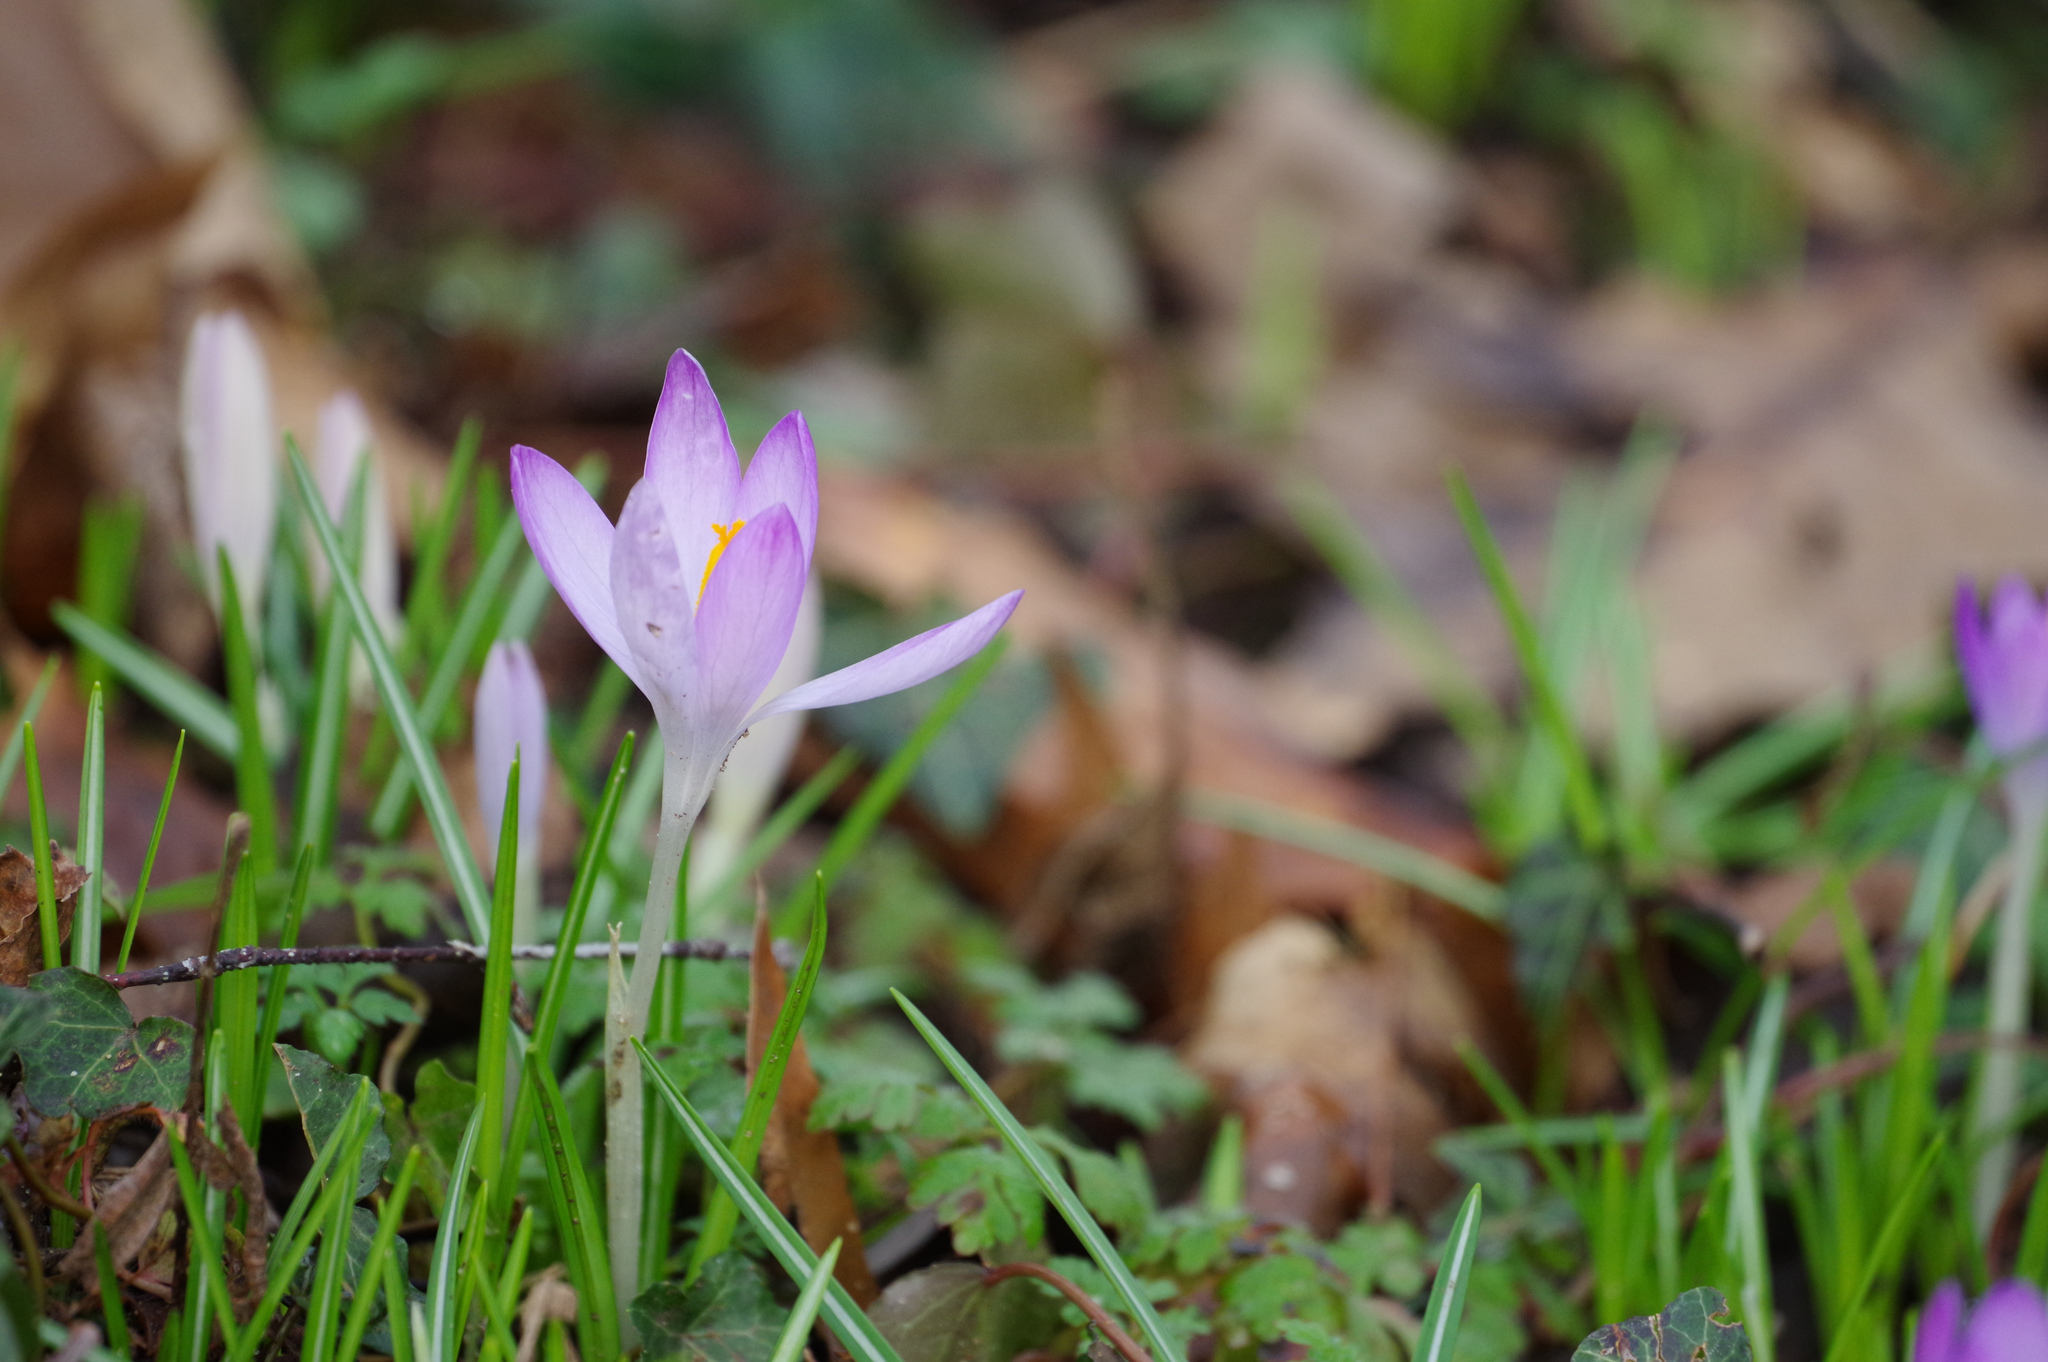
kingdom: Plantae
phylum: Tracheophyta
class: Liliopsida
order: Asparagales
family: Iridaceae
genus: Crocus
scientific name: Crocus tommasinianus
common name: Early crocus
